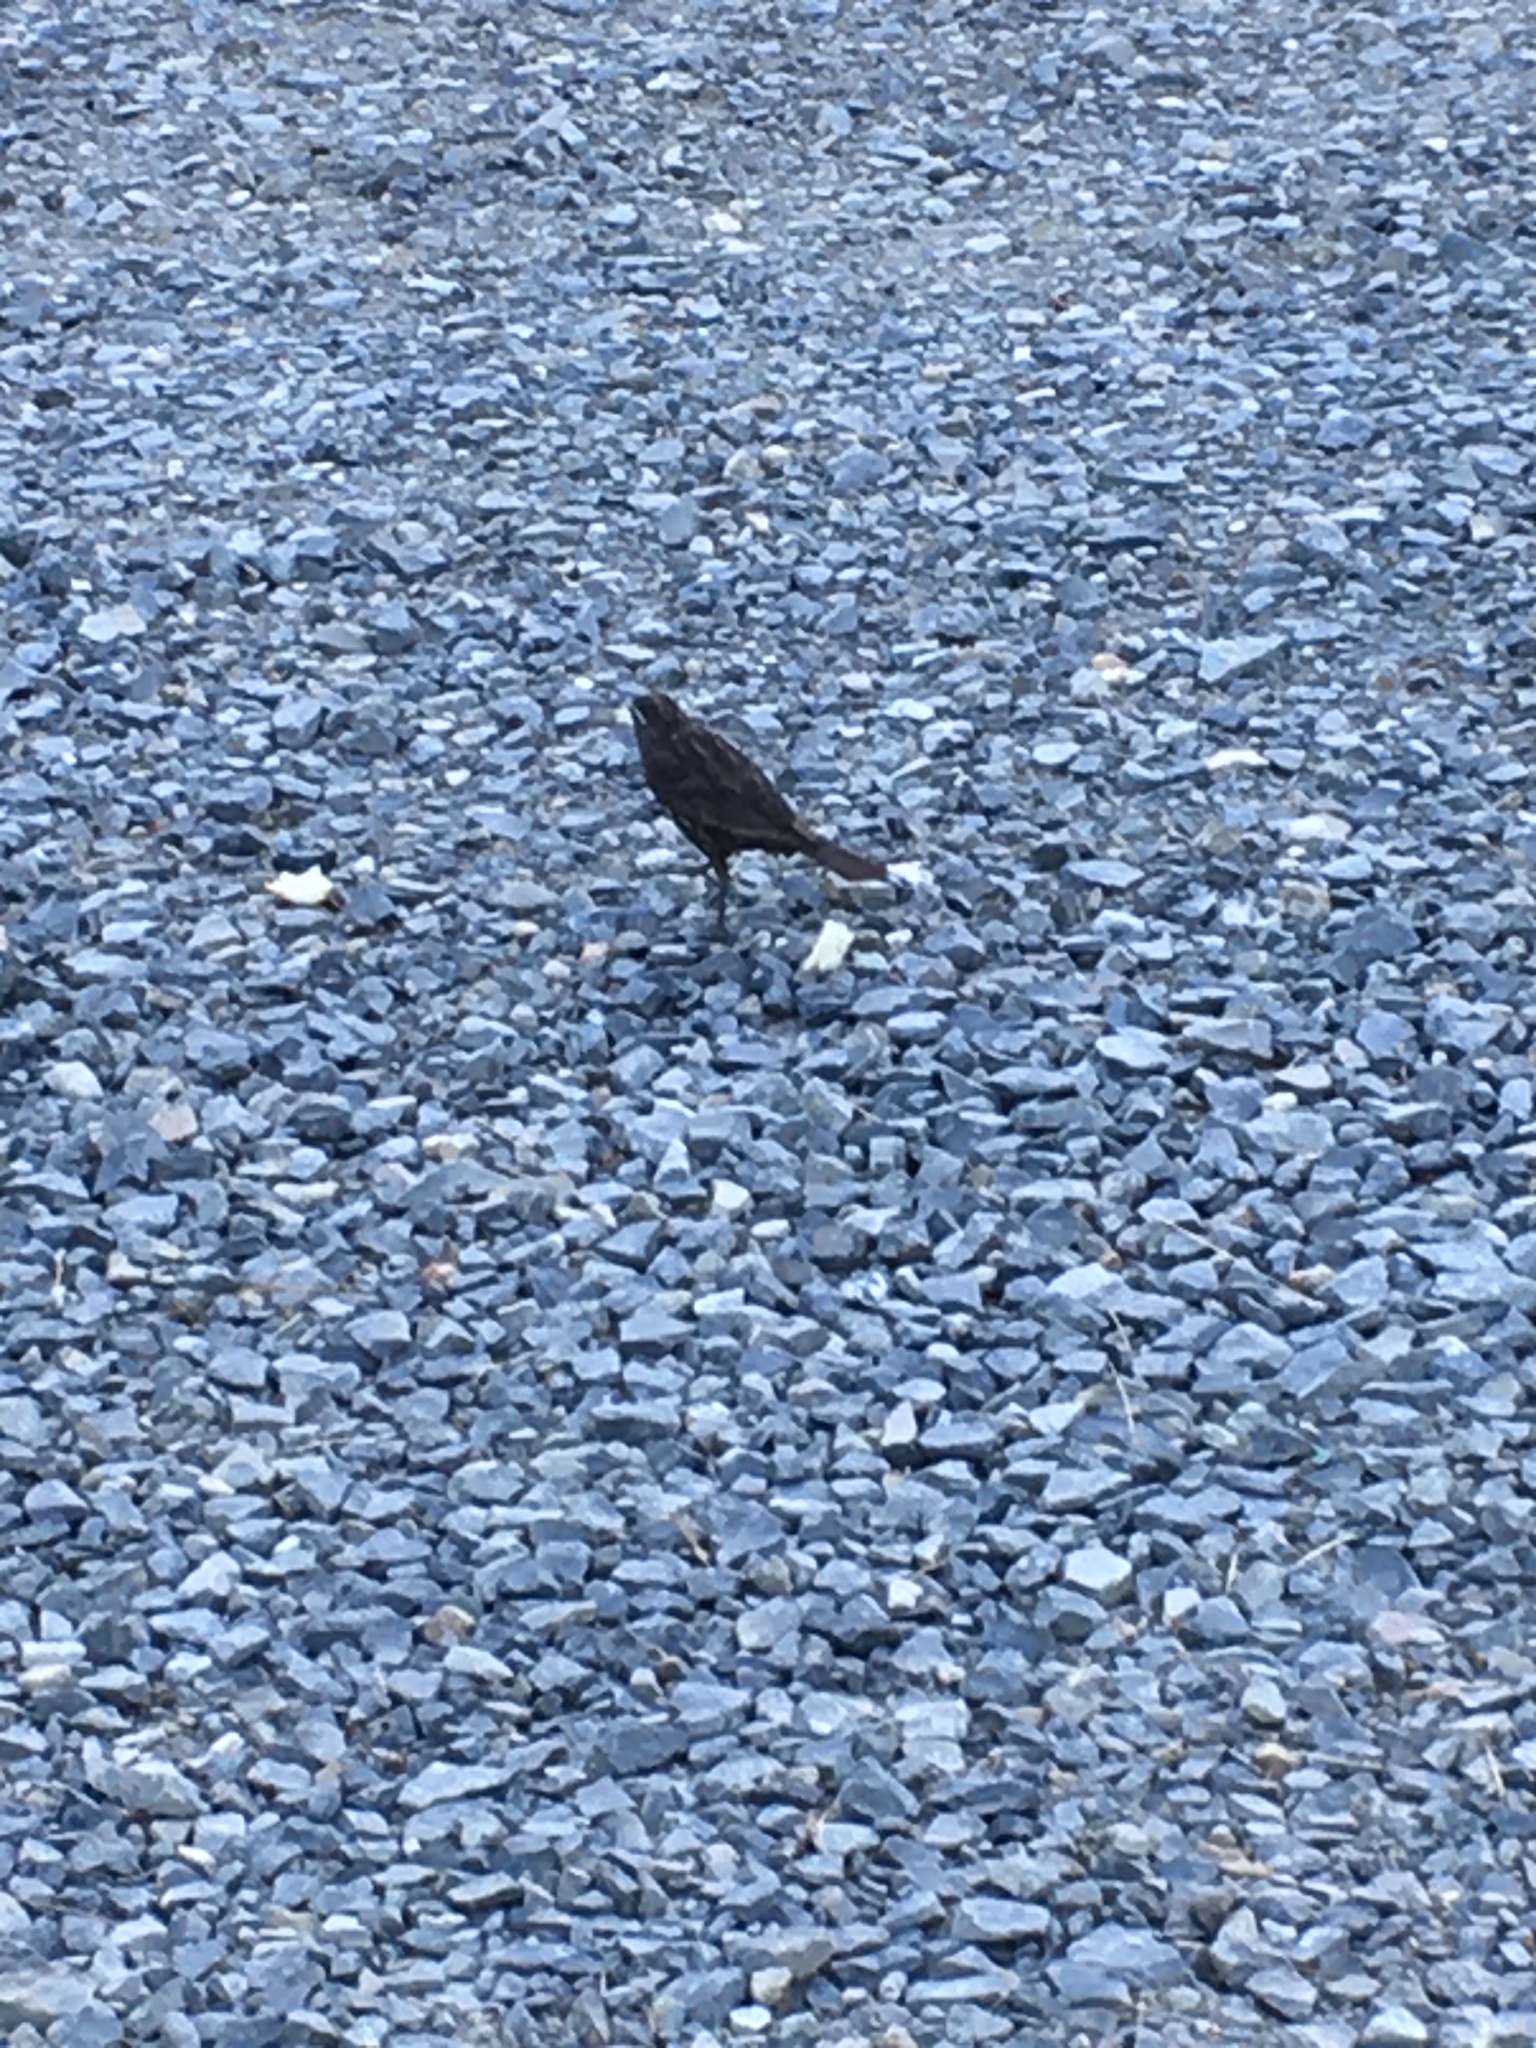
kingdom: Animalia
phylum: Chordata
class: Aves
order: Passeriformes
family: Icteridae
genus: Agelaius
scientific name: Agelaius phoeniceus
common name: Red-winged blackbird
